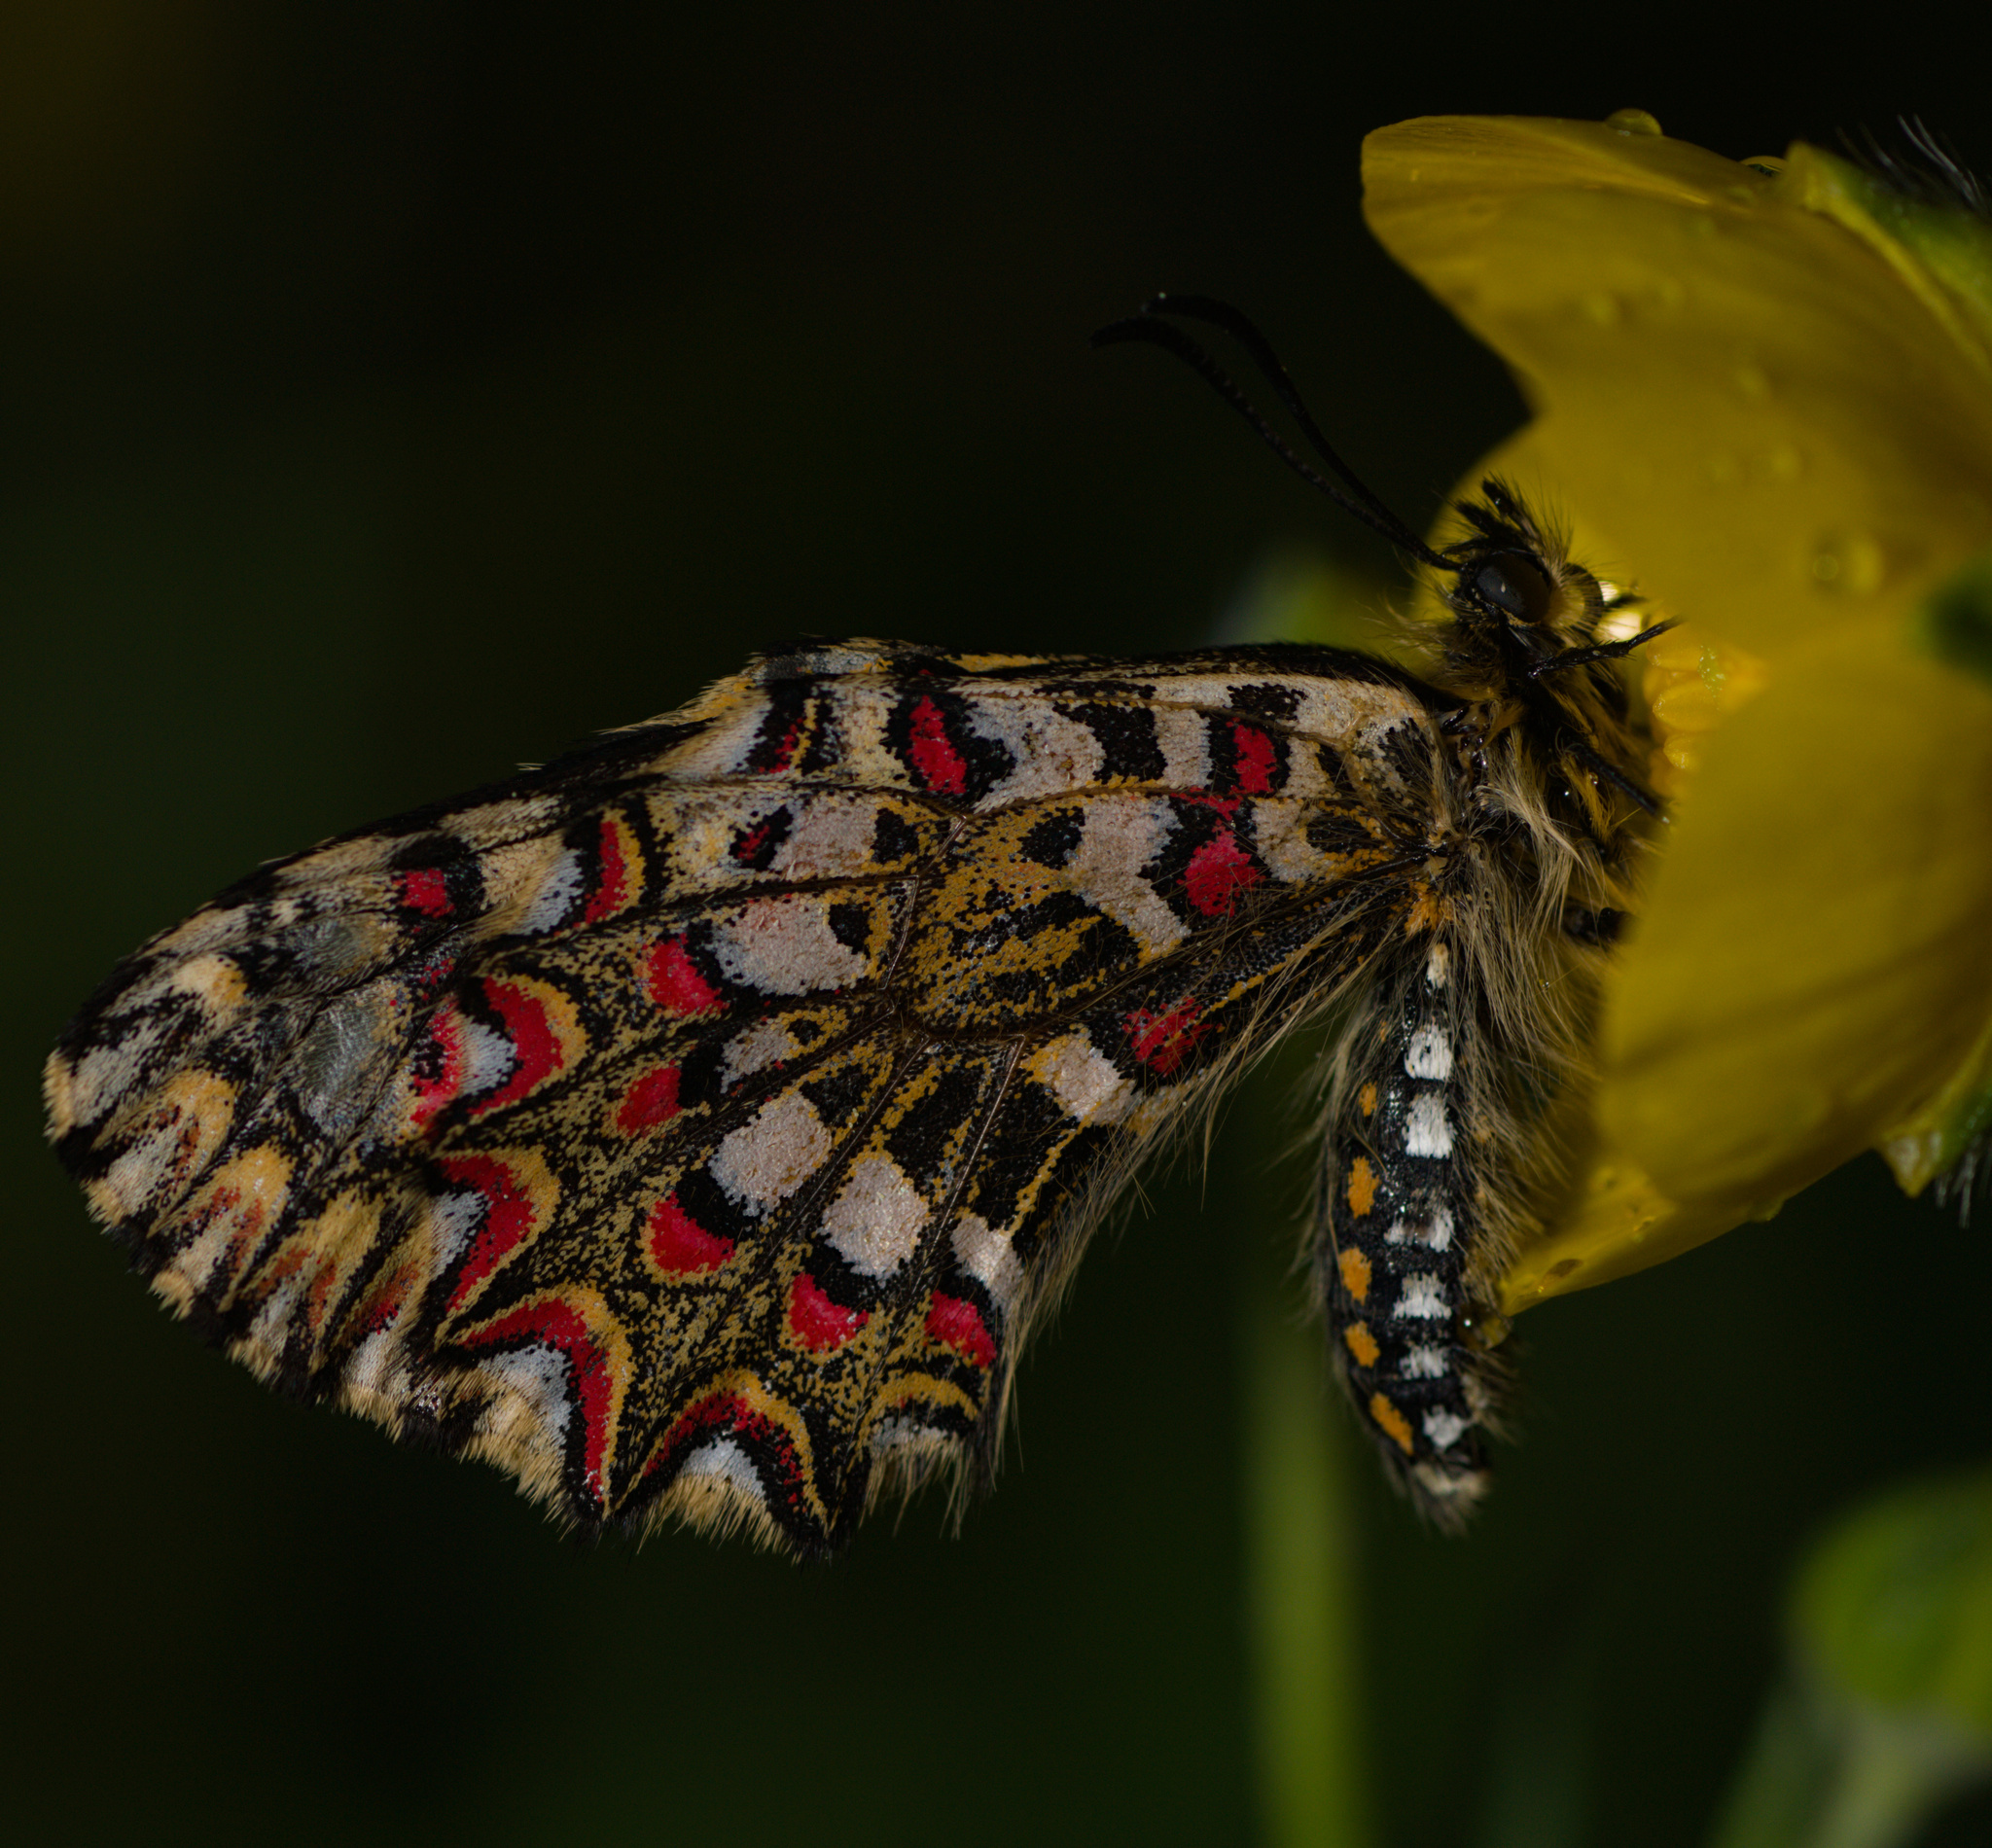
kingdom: Animalia
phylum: Arthropoda
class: Insecta
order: Lepidoptera
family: Papilionidae
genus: Zerynthia
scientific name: Zerynthia rumina
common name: Spanish festoon
